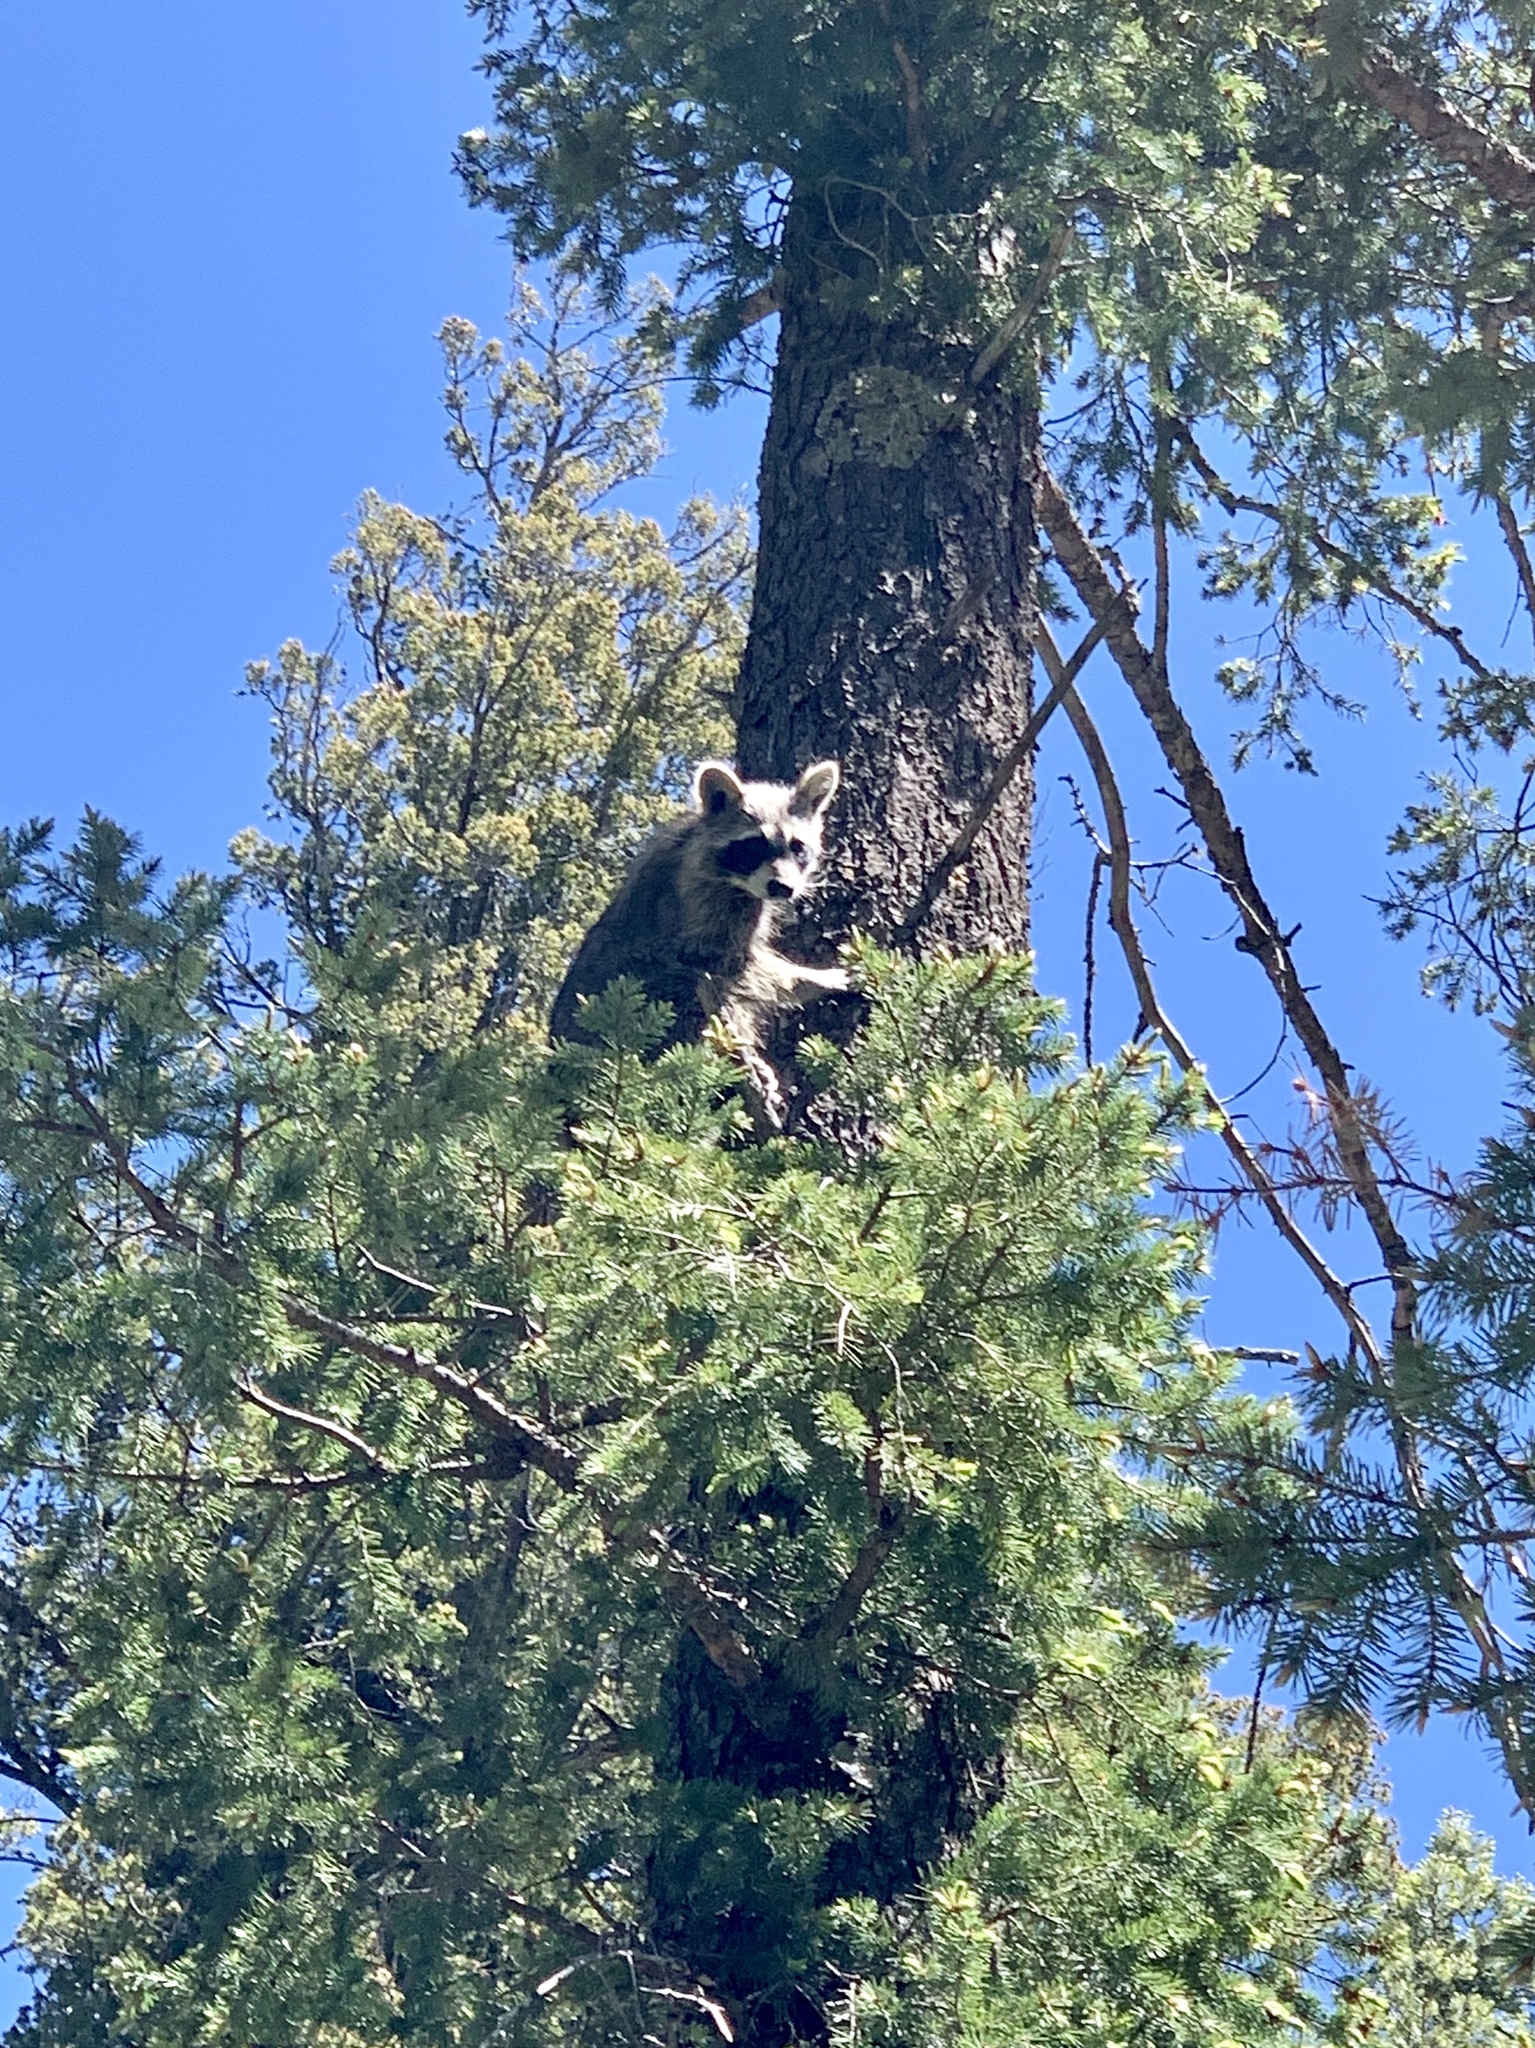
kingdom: Animalia
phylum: Chordata
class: Mammalia
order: Carnivora
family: Procyonidae
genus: Procyon
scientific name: Procyon lotor
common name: Raccoon
